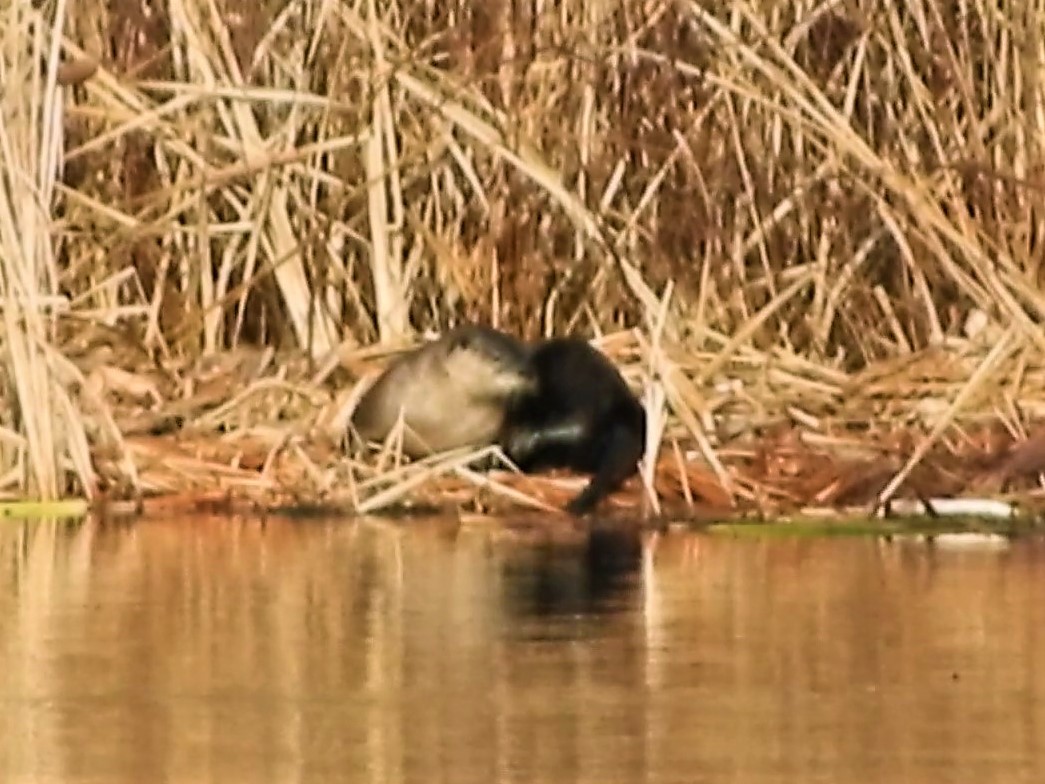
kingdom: Animalia
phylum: Chordata
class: Mammalia
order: Carnivora
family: Mustelidae
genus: Lontra
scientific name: Lontra canadensis
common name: North american river otter
